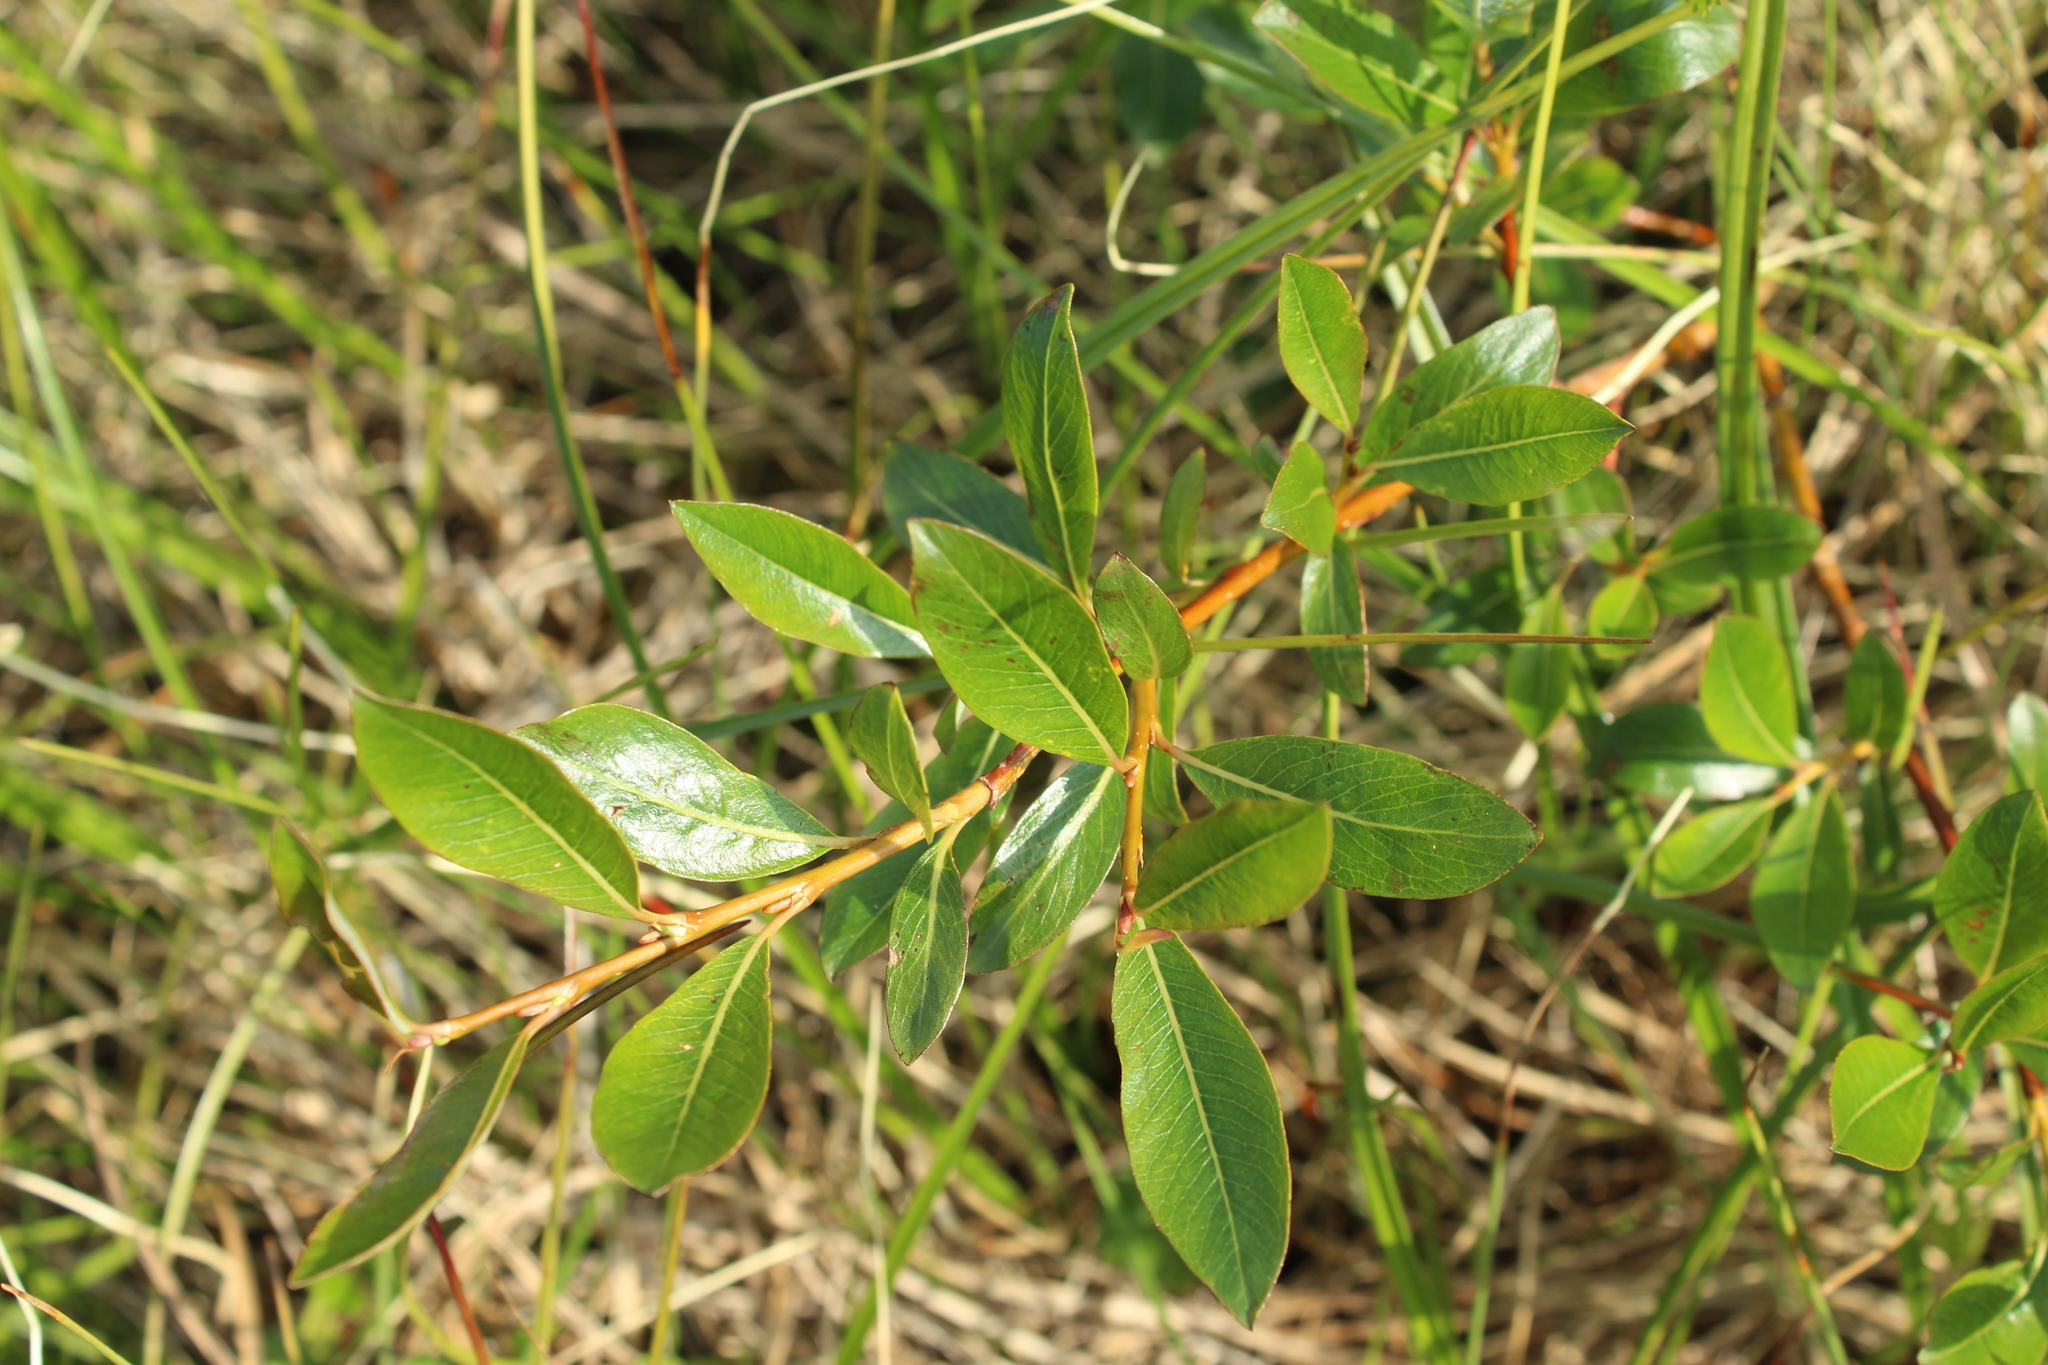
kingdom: Plantae
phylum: Tracheophyta
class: Magnoliopsida
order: Malpighiales
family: Salicaceae
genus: Salix
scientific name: Salix pulchra
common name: Diamond-leaved willow
